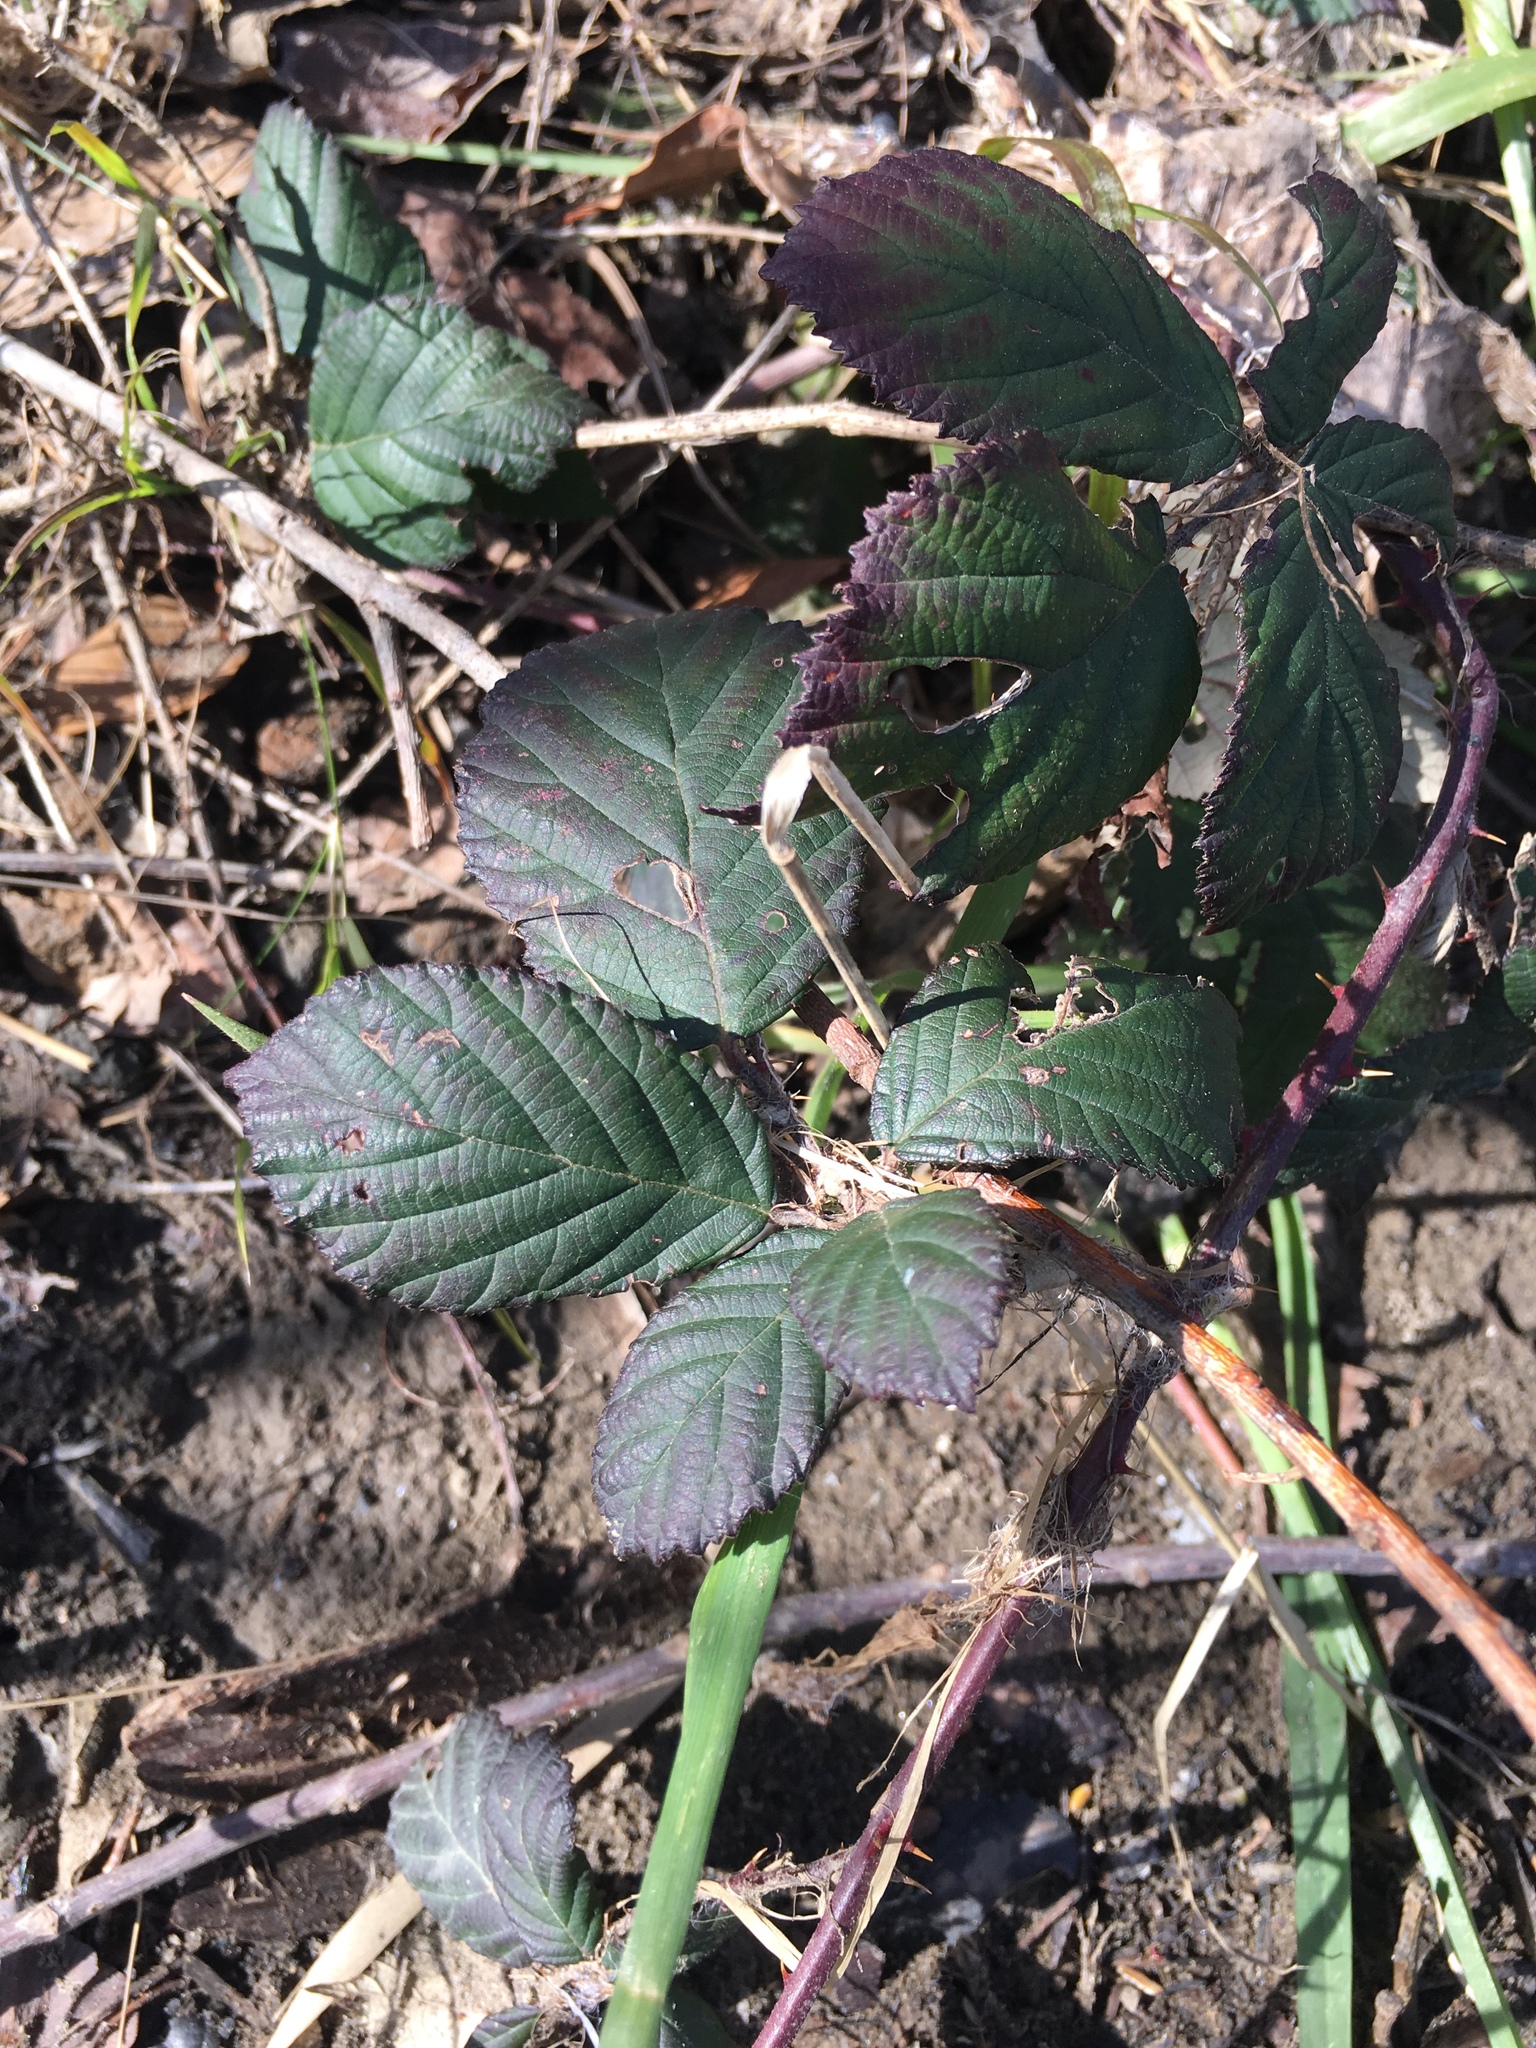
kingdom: Plantae
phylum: Tracheophyta
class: Magnoliopsida
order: Rosales
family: Rosaceae
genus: Rubus
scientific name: Rubus armeniacus
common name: Himalayan blackberry
